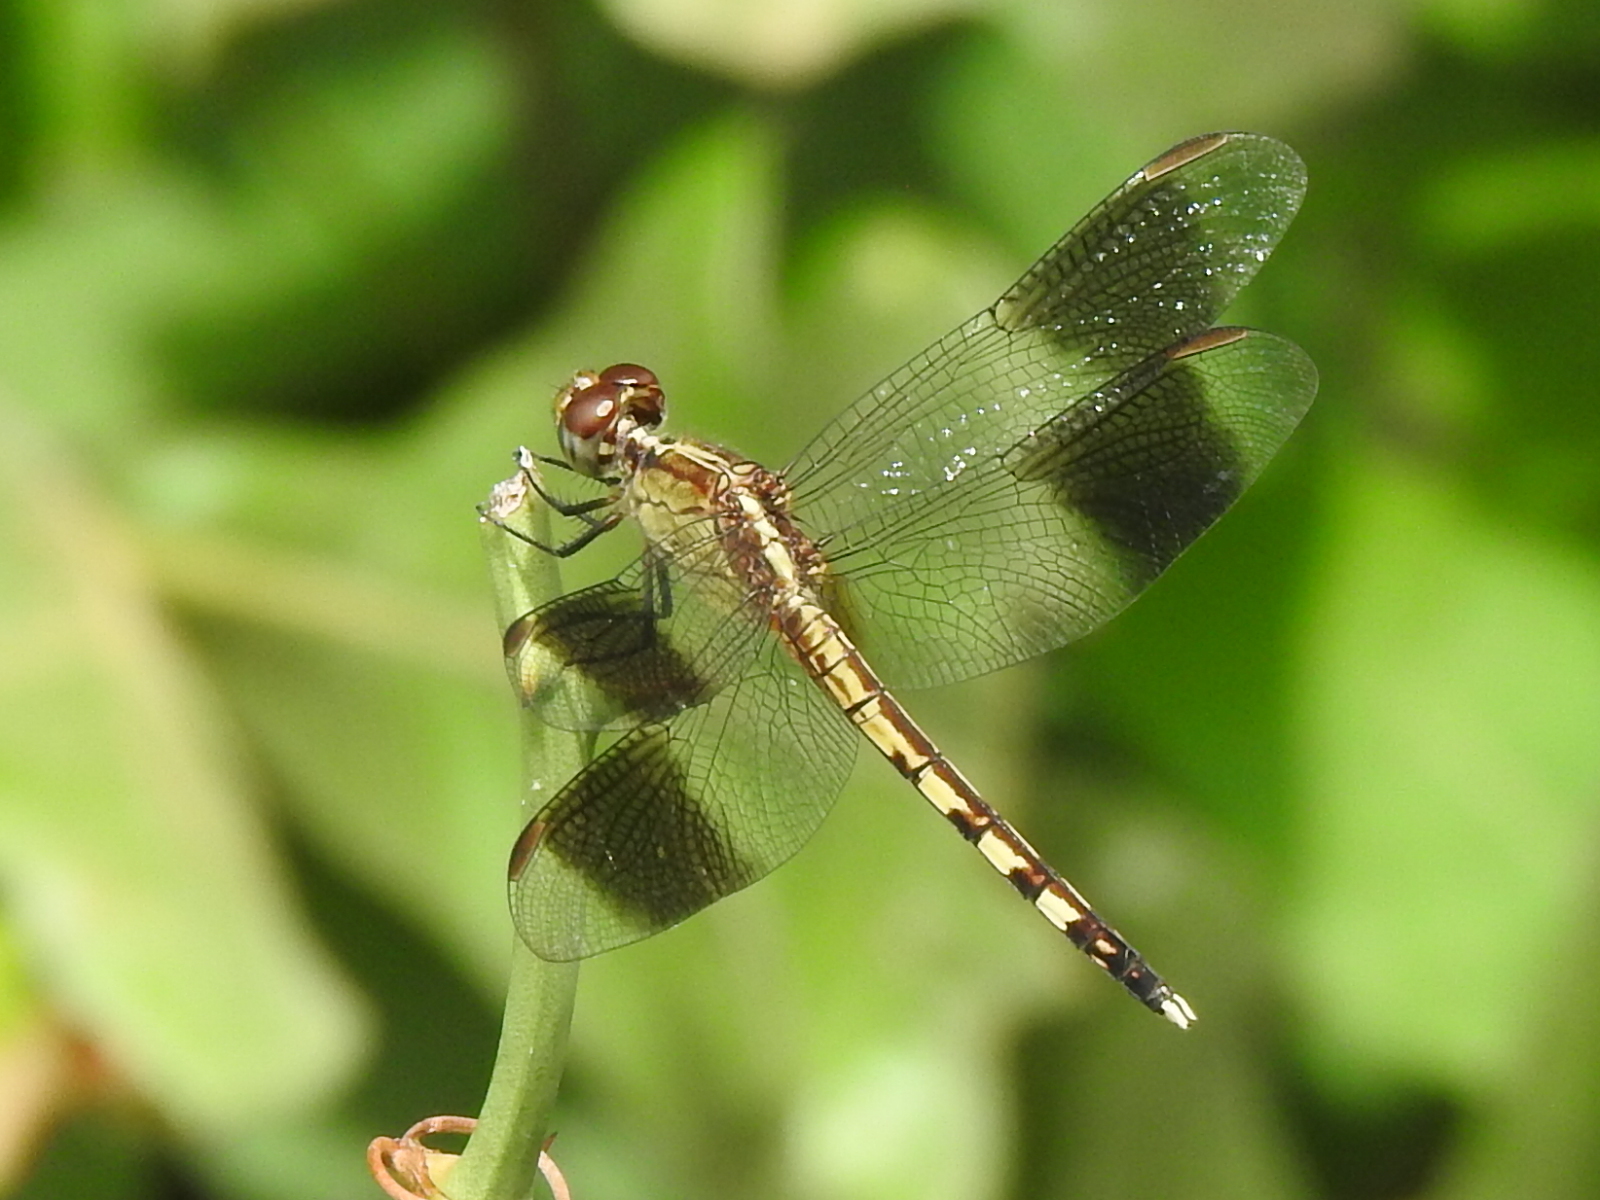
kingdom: Animalia
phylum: Arthropoda
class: Insecta
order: Odonata
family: Libellulidae
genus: Erythrodiplax
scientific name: Erythrodiplax umbrata
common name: Band-winged dragonlet
